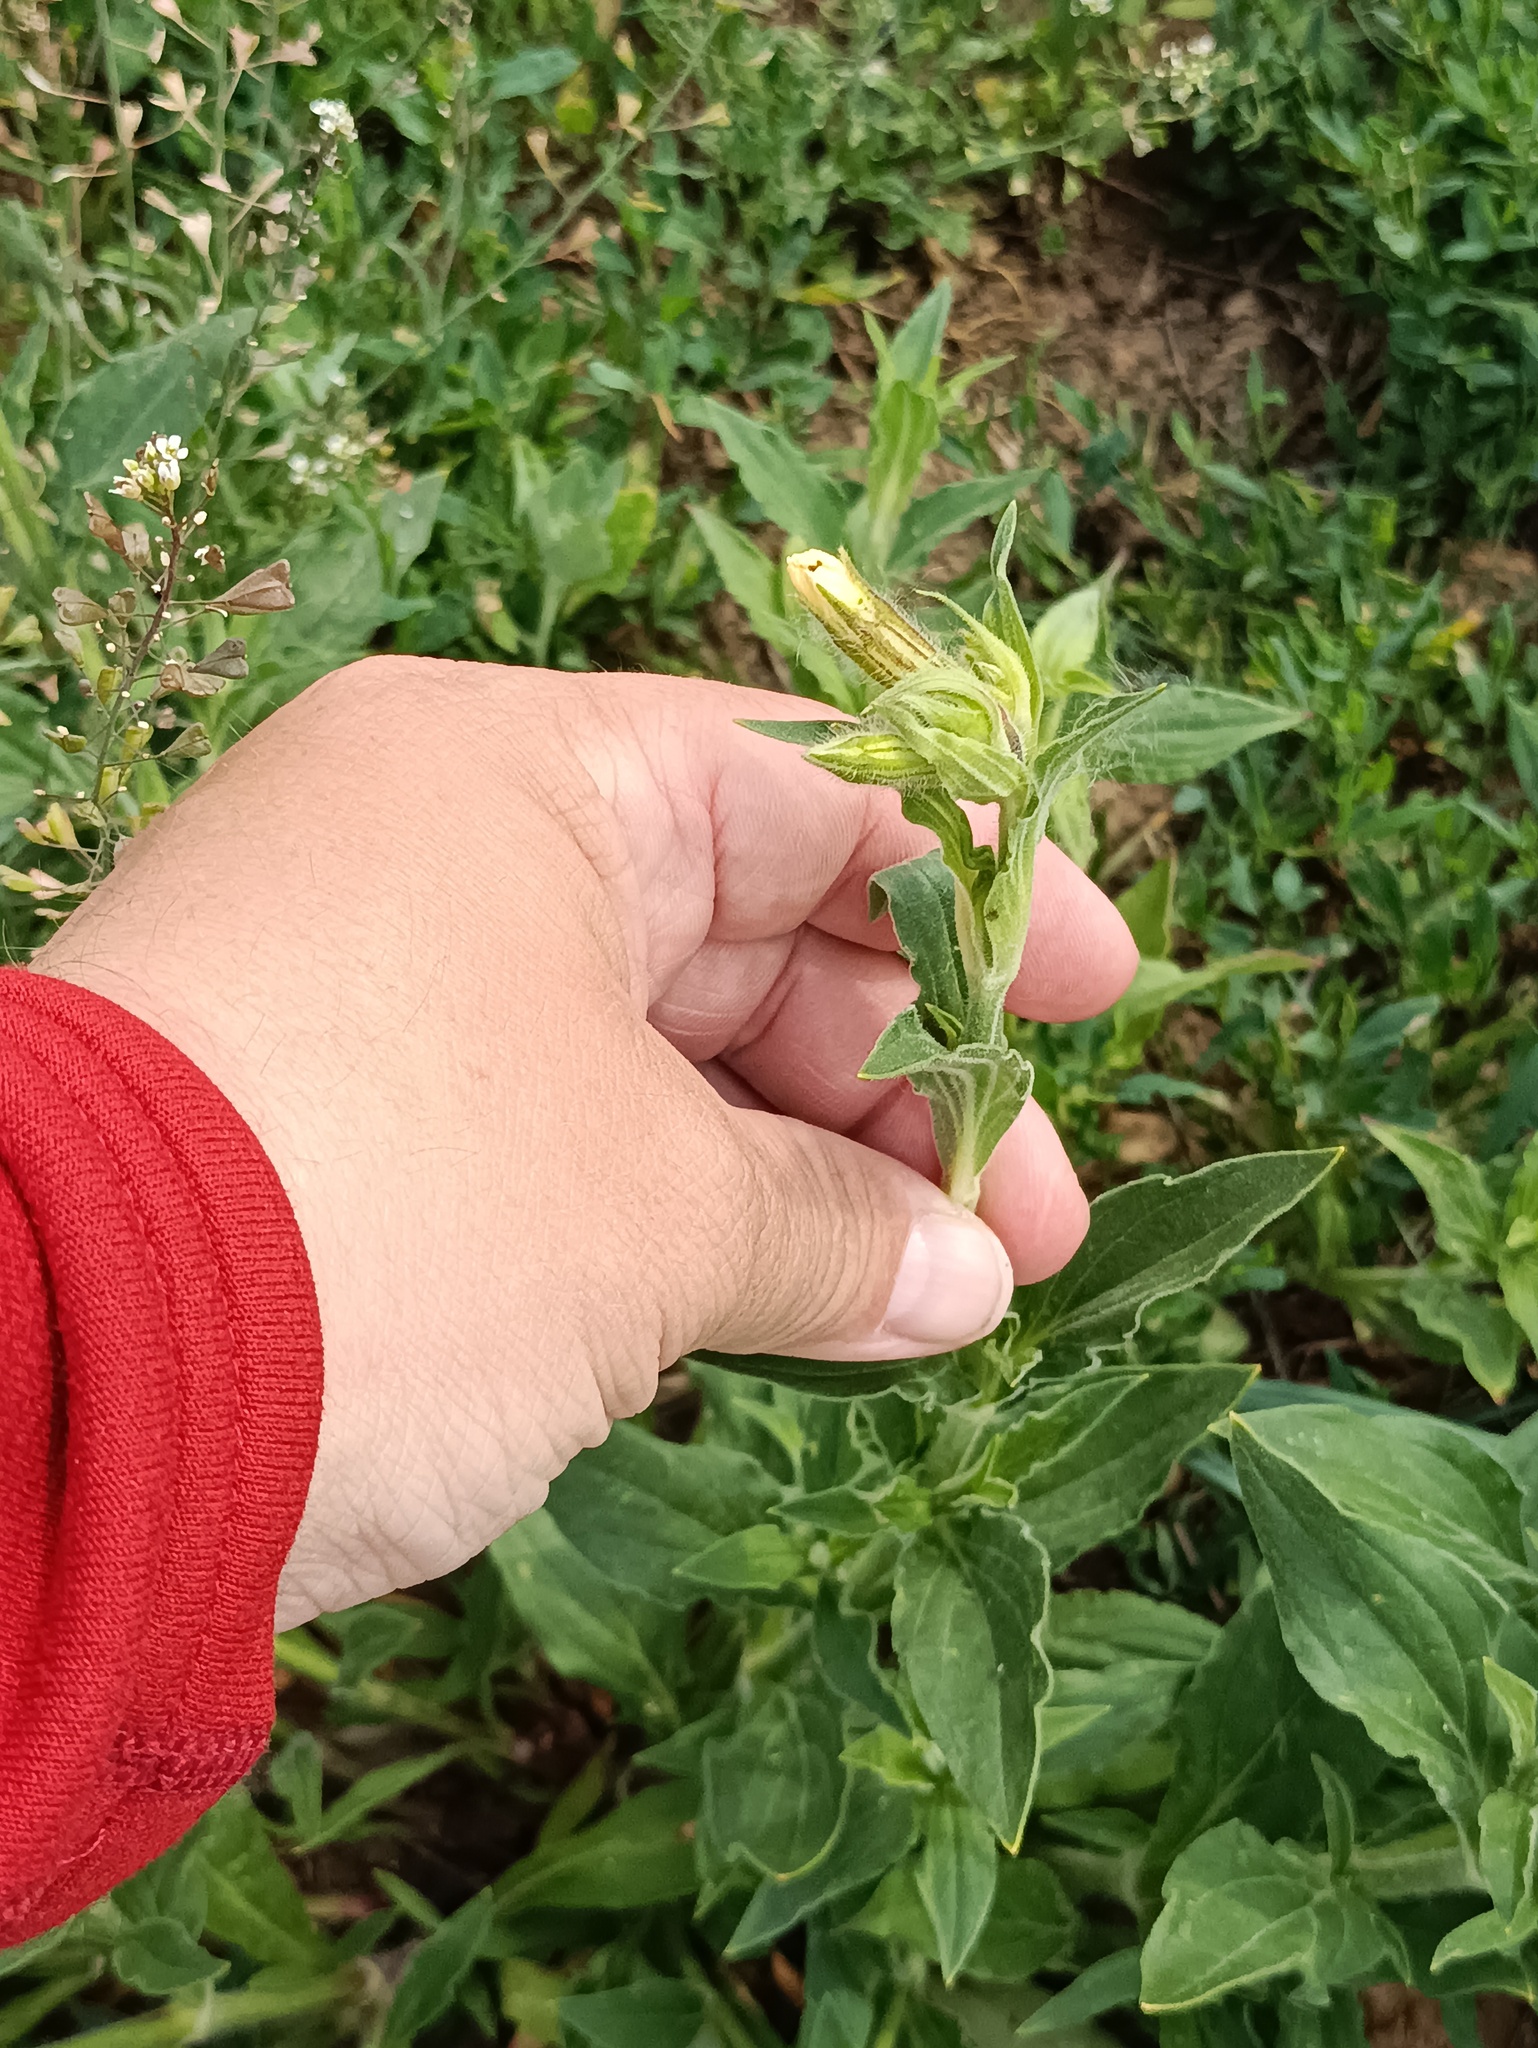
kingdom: Plantae
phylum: Tracheophyta
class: Magnoliopsida
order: Caryophyllales
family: Caryophyllaceae
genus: Silene
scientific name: Silene latifolia
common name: White campion
